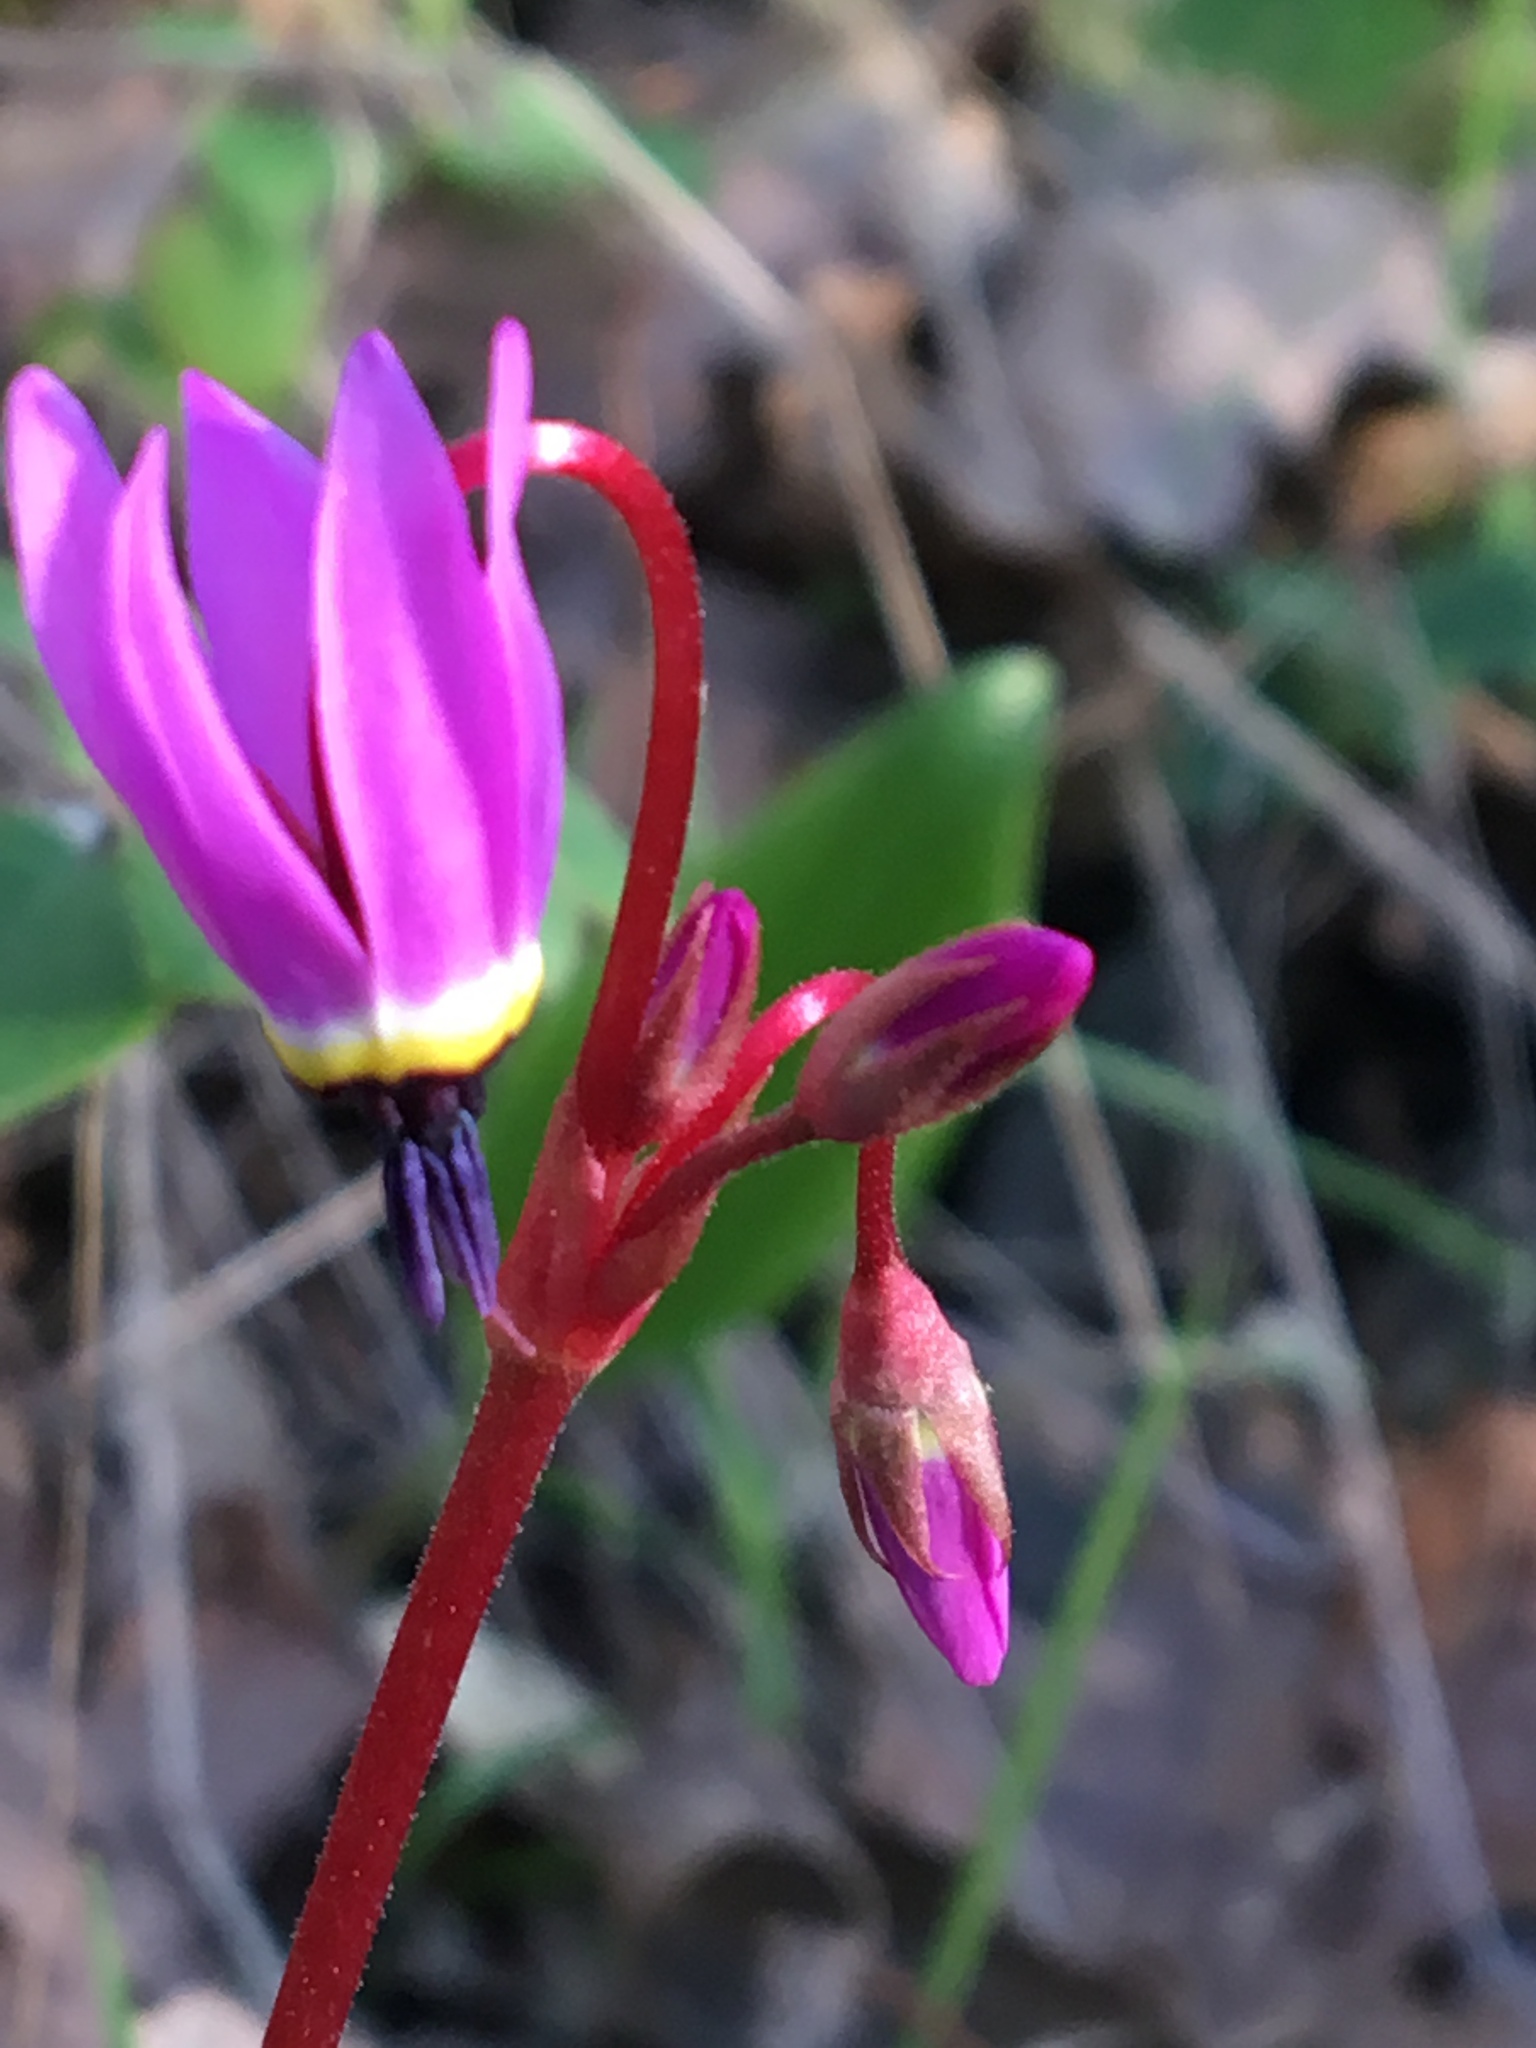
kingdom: Plantae
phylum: Tracheophyta
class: Magnoliopsida
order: Ericales
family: Primulaceae
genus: Dodecatheon
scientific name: Dodecatheon hendersonii
